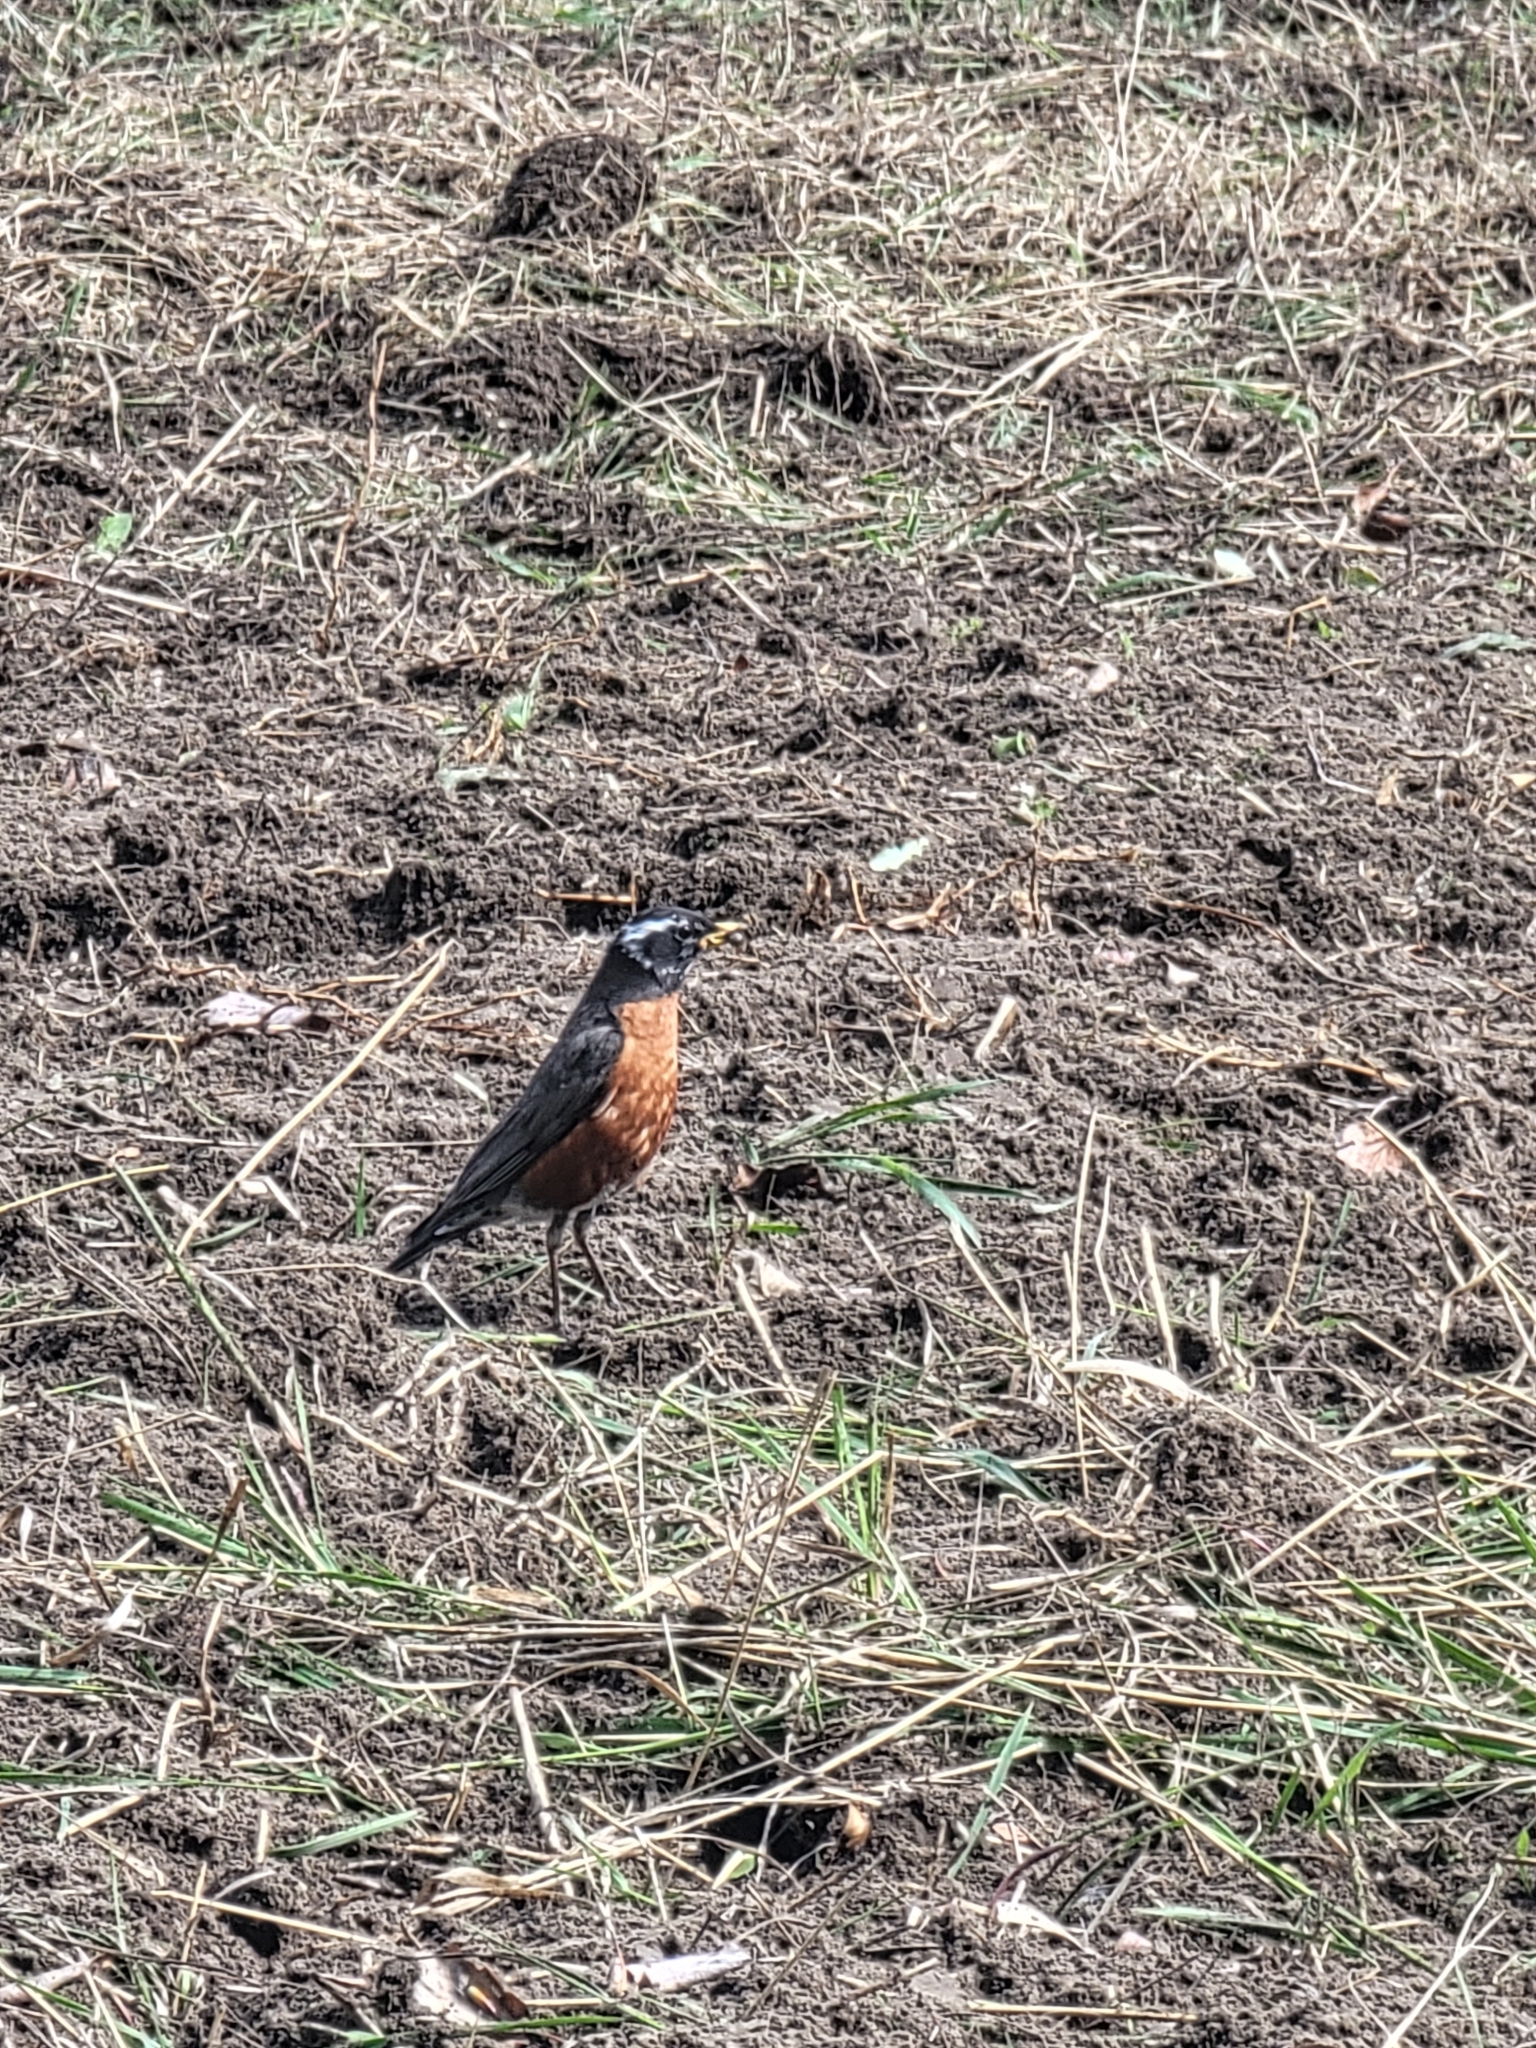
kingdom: Animalia
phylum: Chordata
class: Aves
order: Passeriformes
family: Turdidae
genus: Turdus
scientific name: Turdus migratorius
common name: American robin
